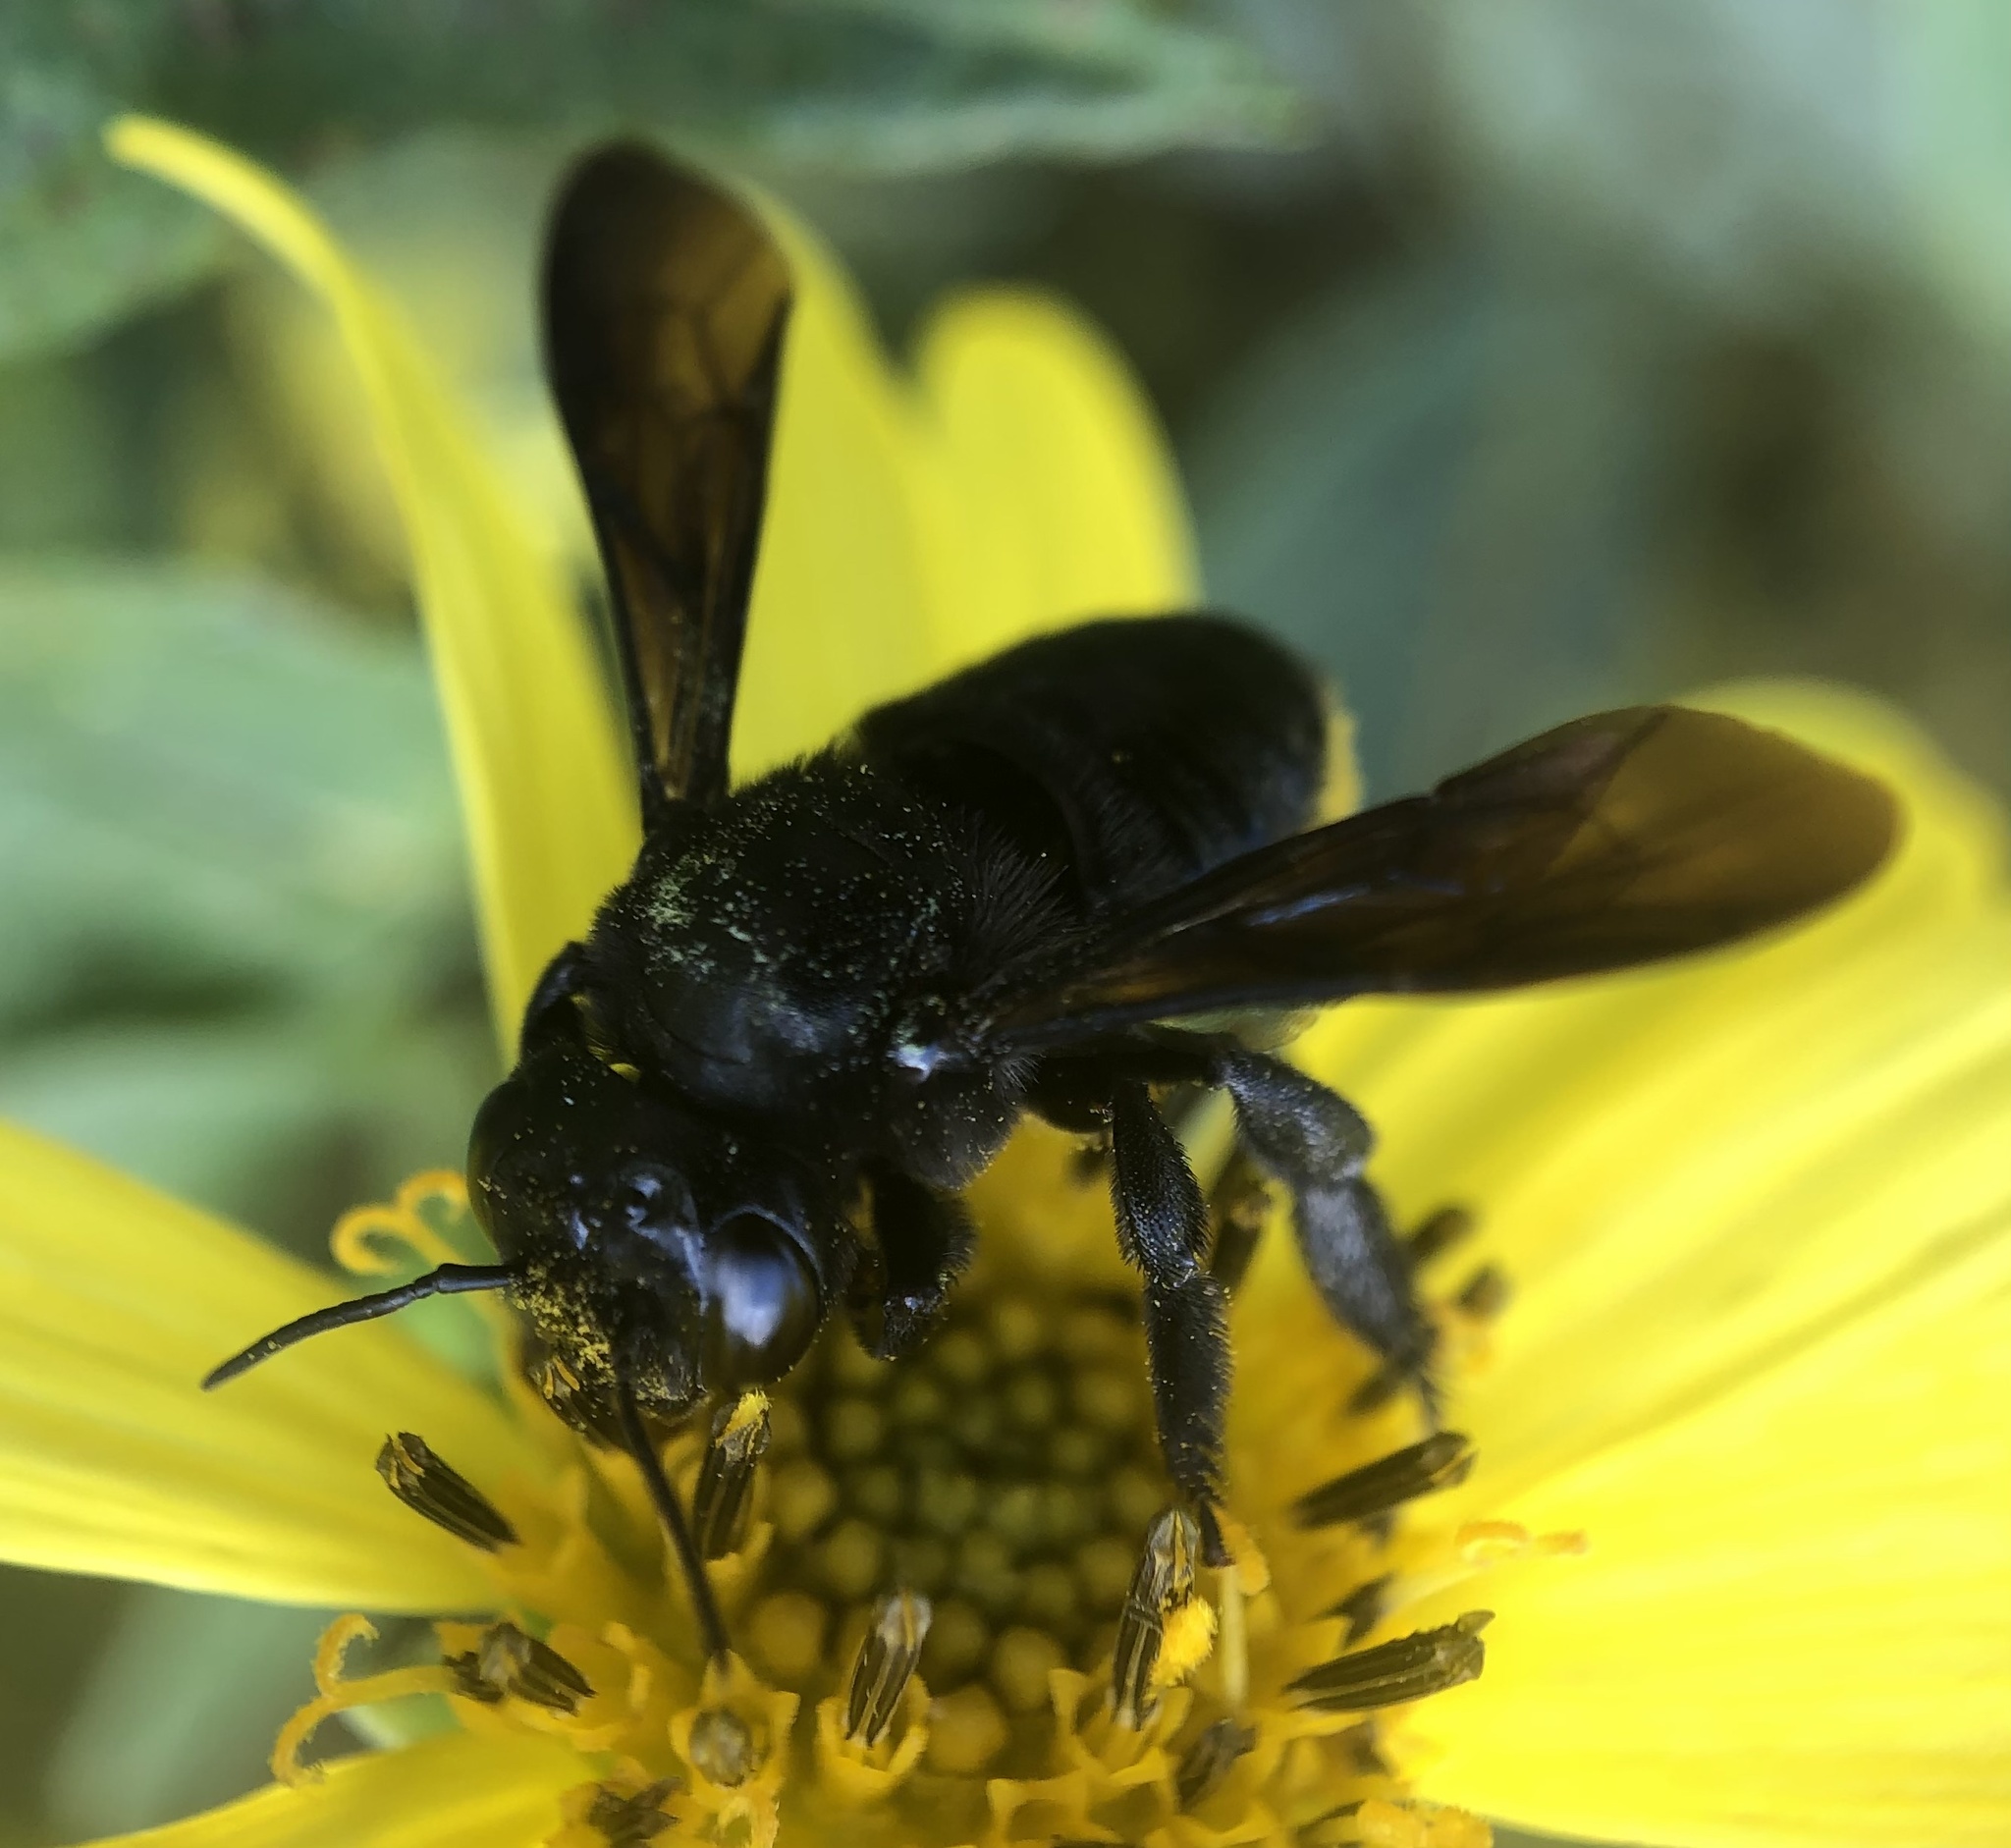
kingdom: Animalia
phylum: Arthropoda
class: Insecta
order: Hymenoptera
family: Megachilidae
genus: Megachile
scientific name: Megachile xylocopoides
